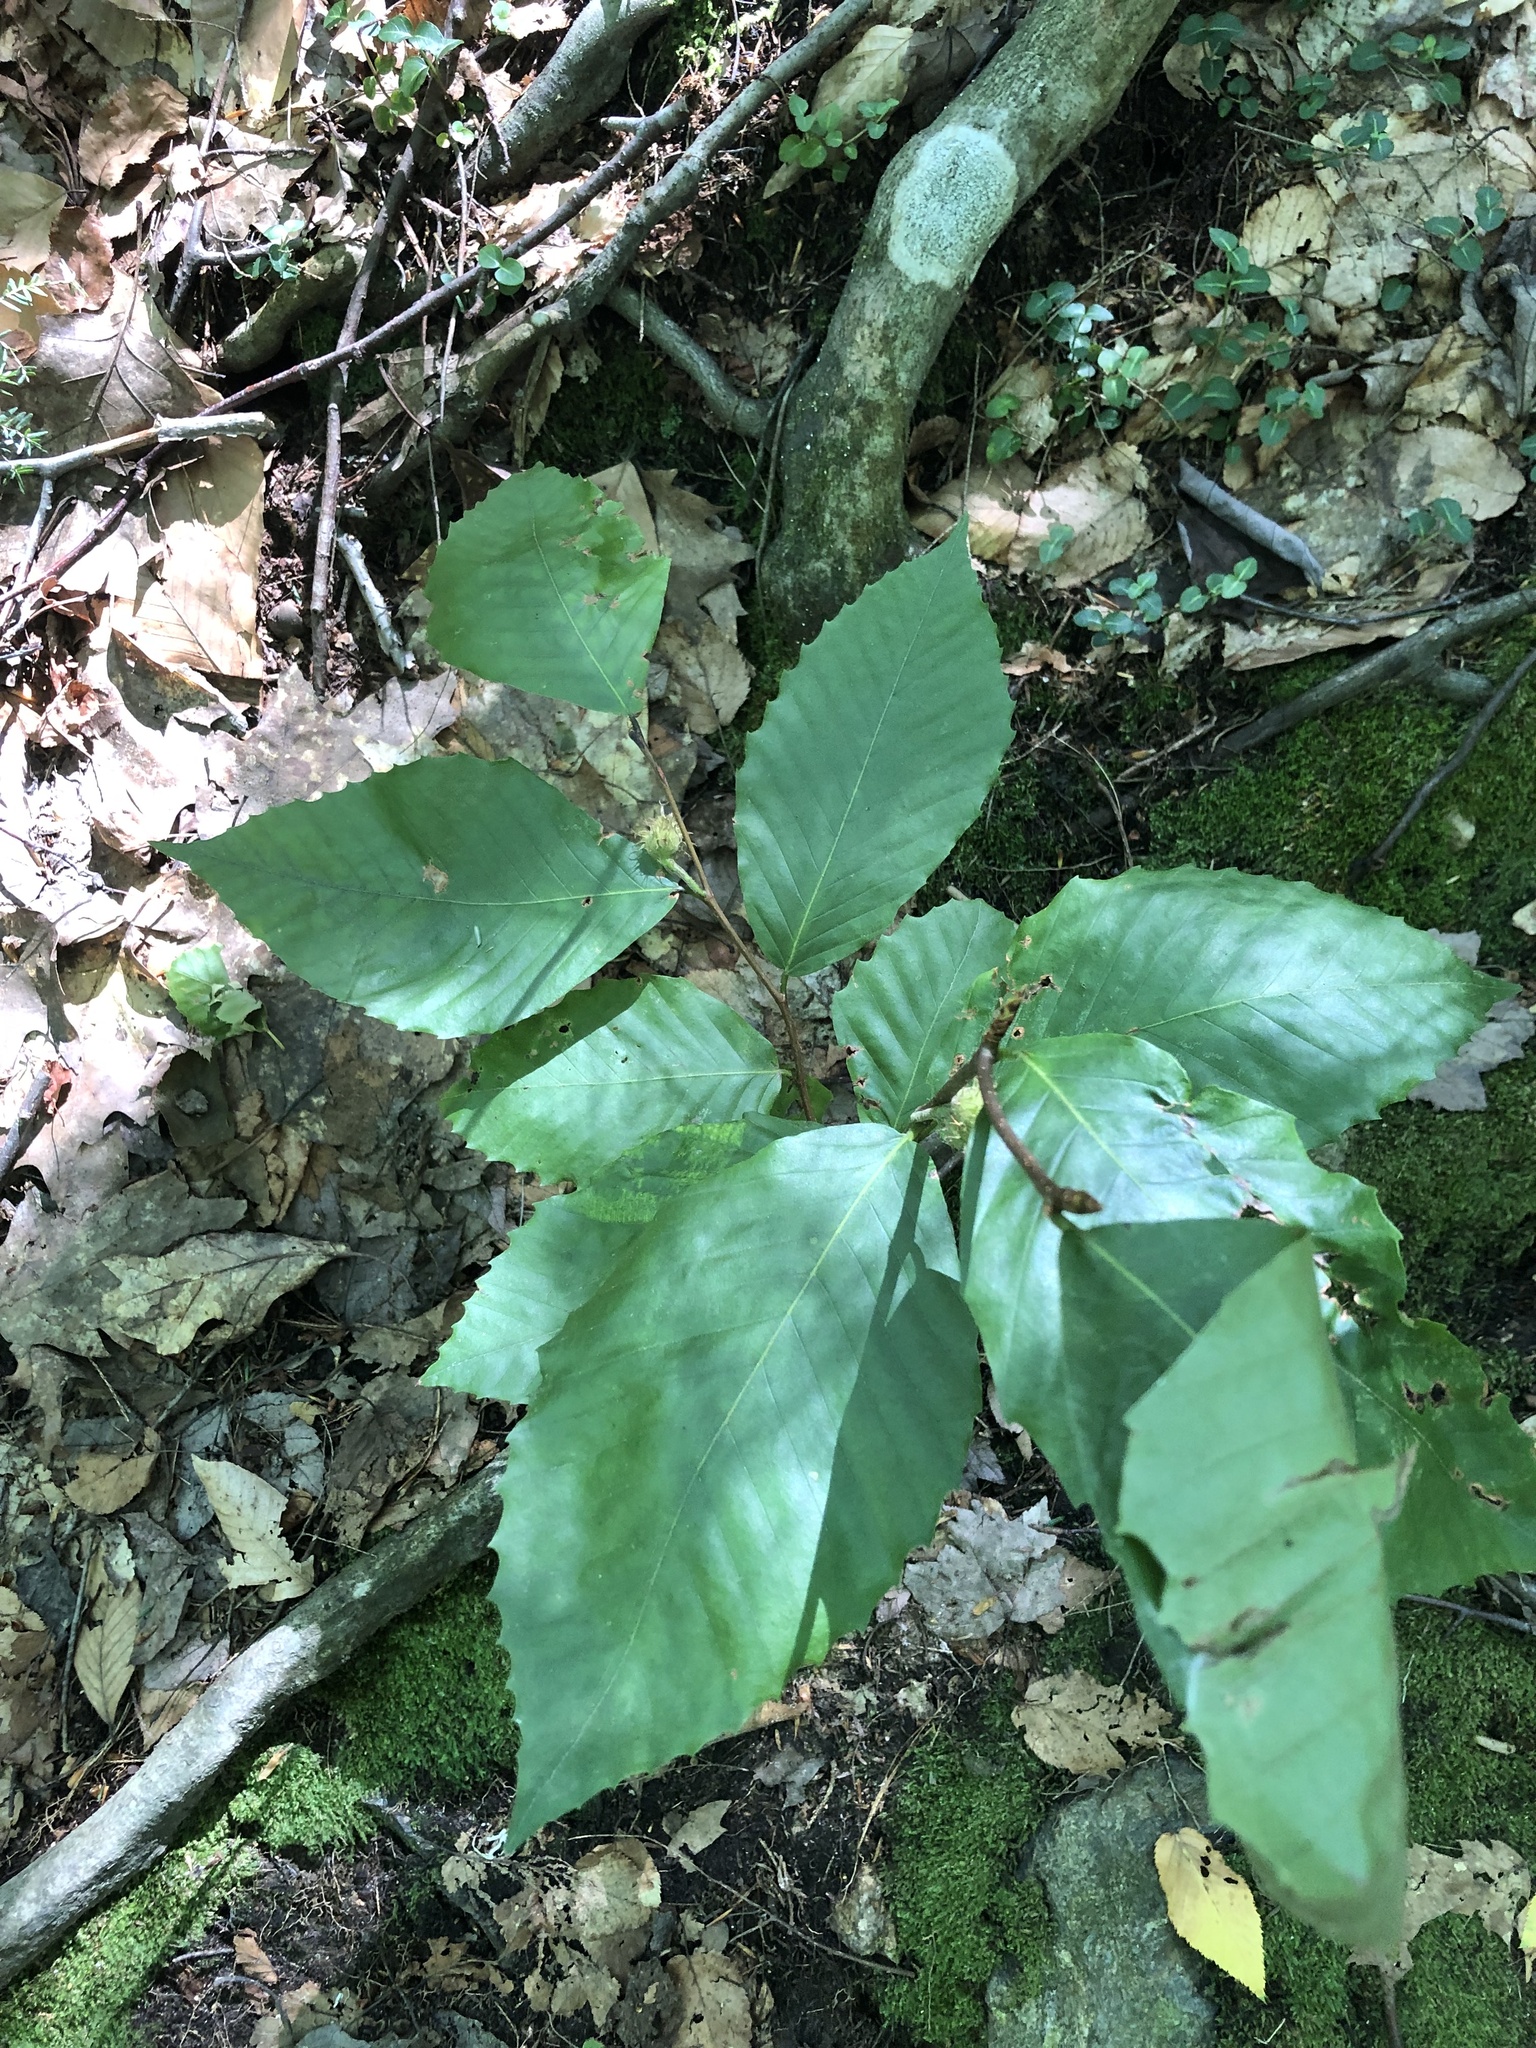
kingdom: Plantae
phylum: Tracheophyta
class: Magnoliopsida
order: Fagales
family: Fagaceae
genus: Fagus
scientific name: Fagus grandifolia
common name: American beech
